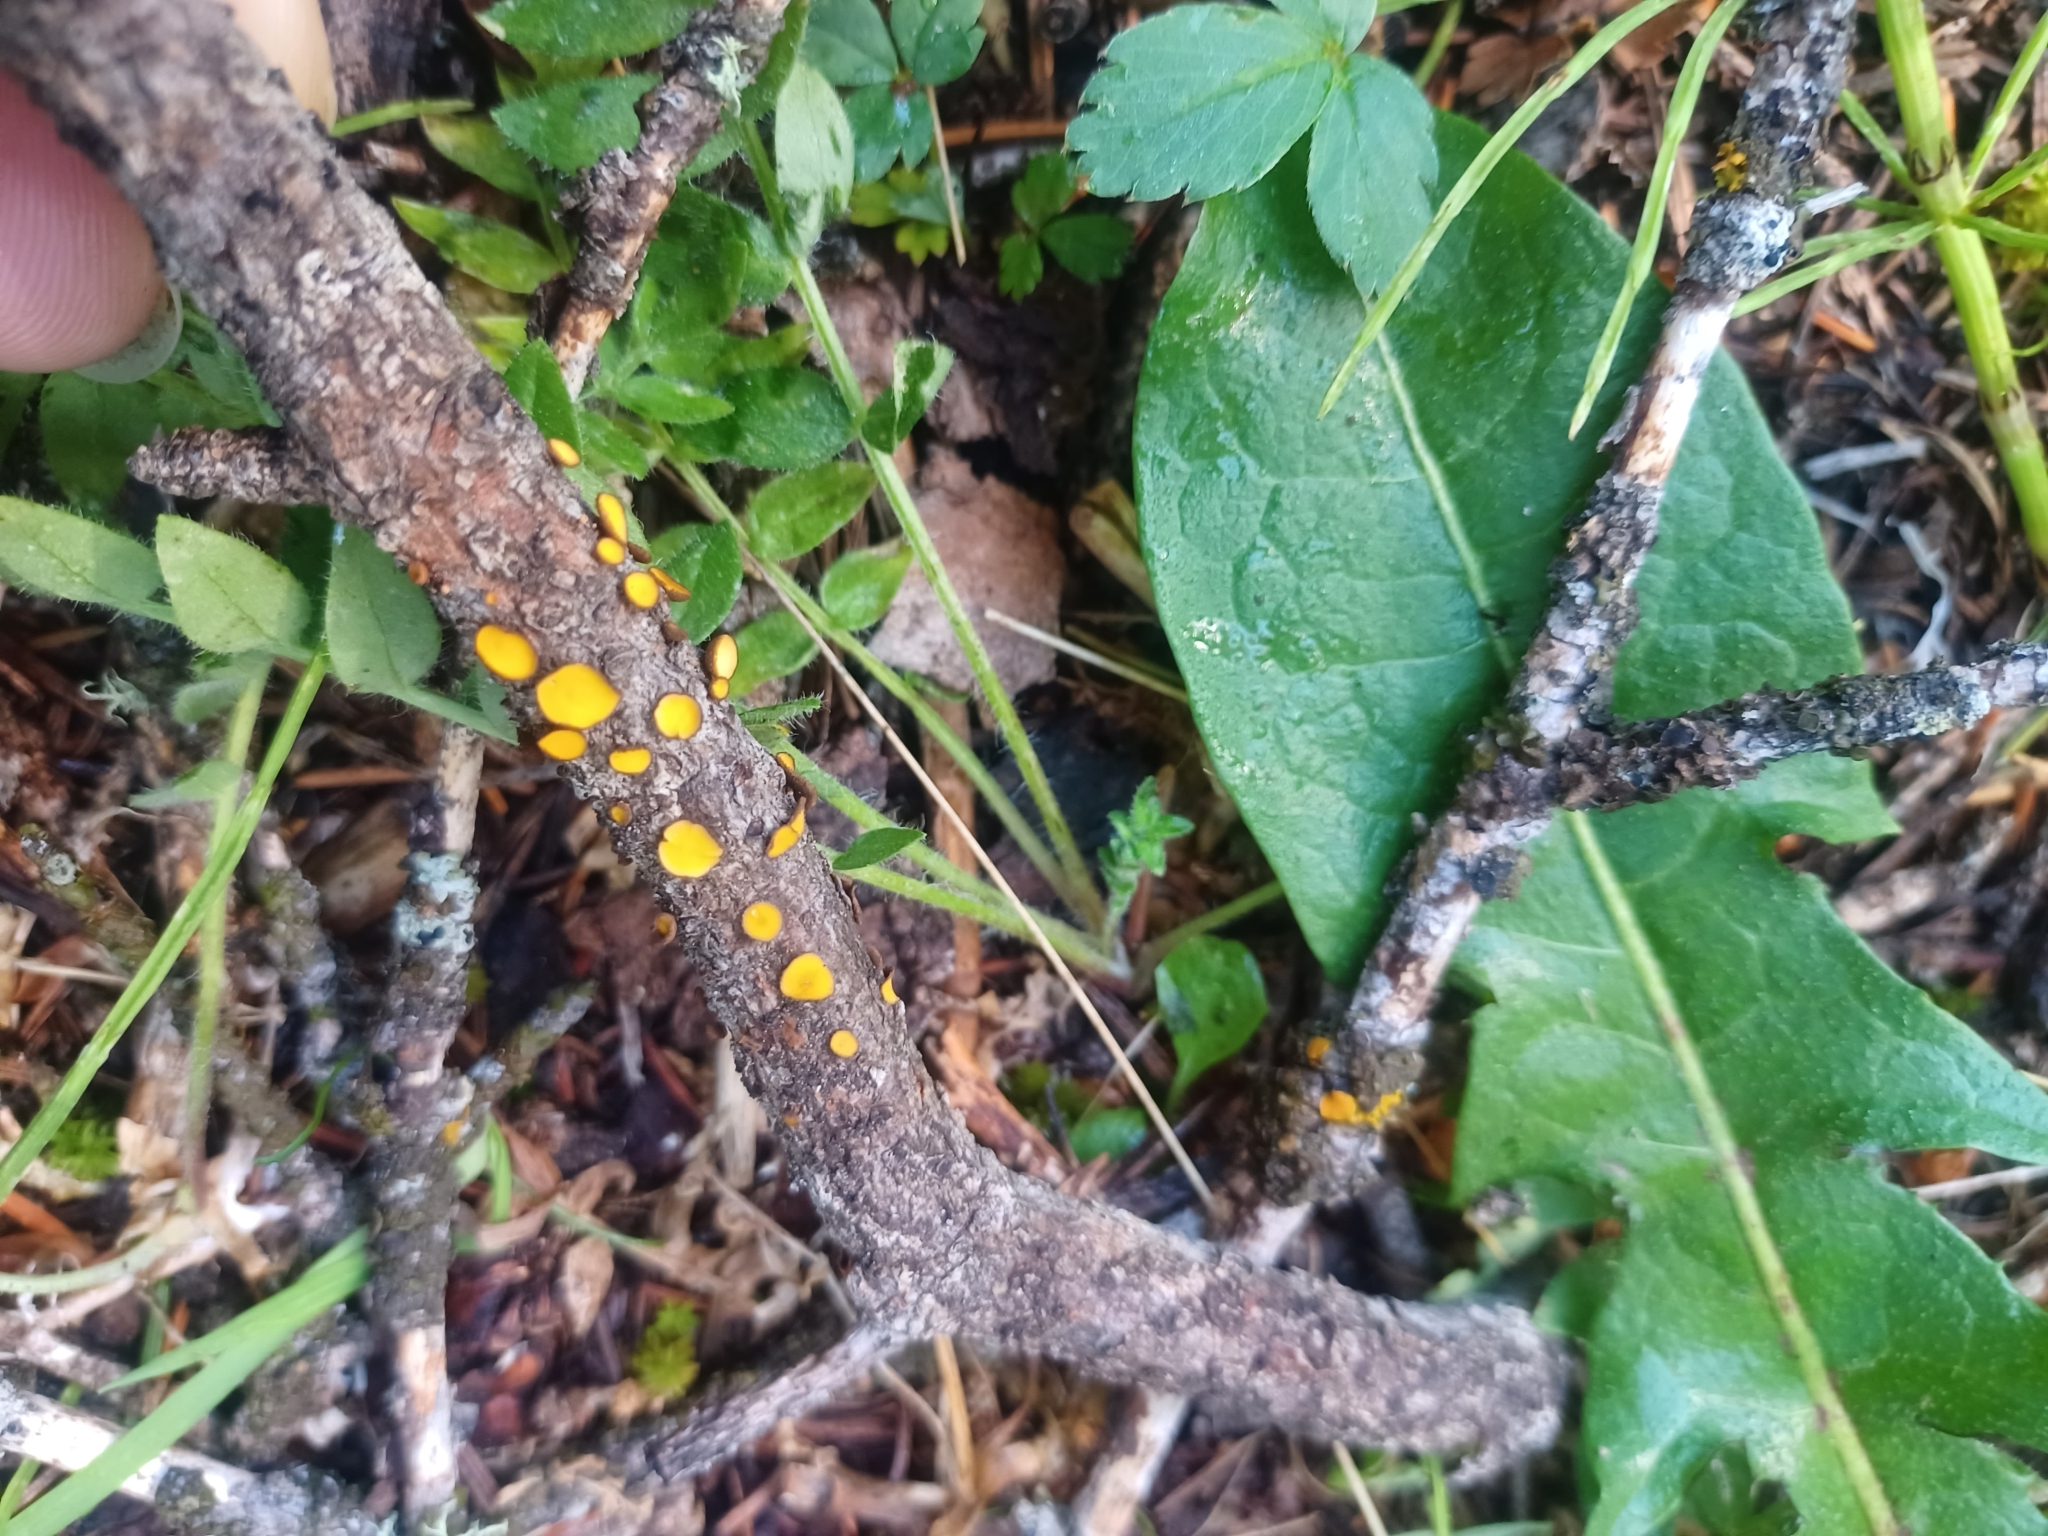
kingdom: Fungi
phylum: Ascomycota
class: Leotiomycetes
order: Helotiales
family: Lachnaceae
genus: Lachnellula
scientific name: Lachnellula arida
